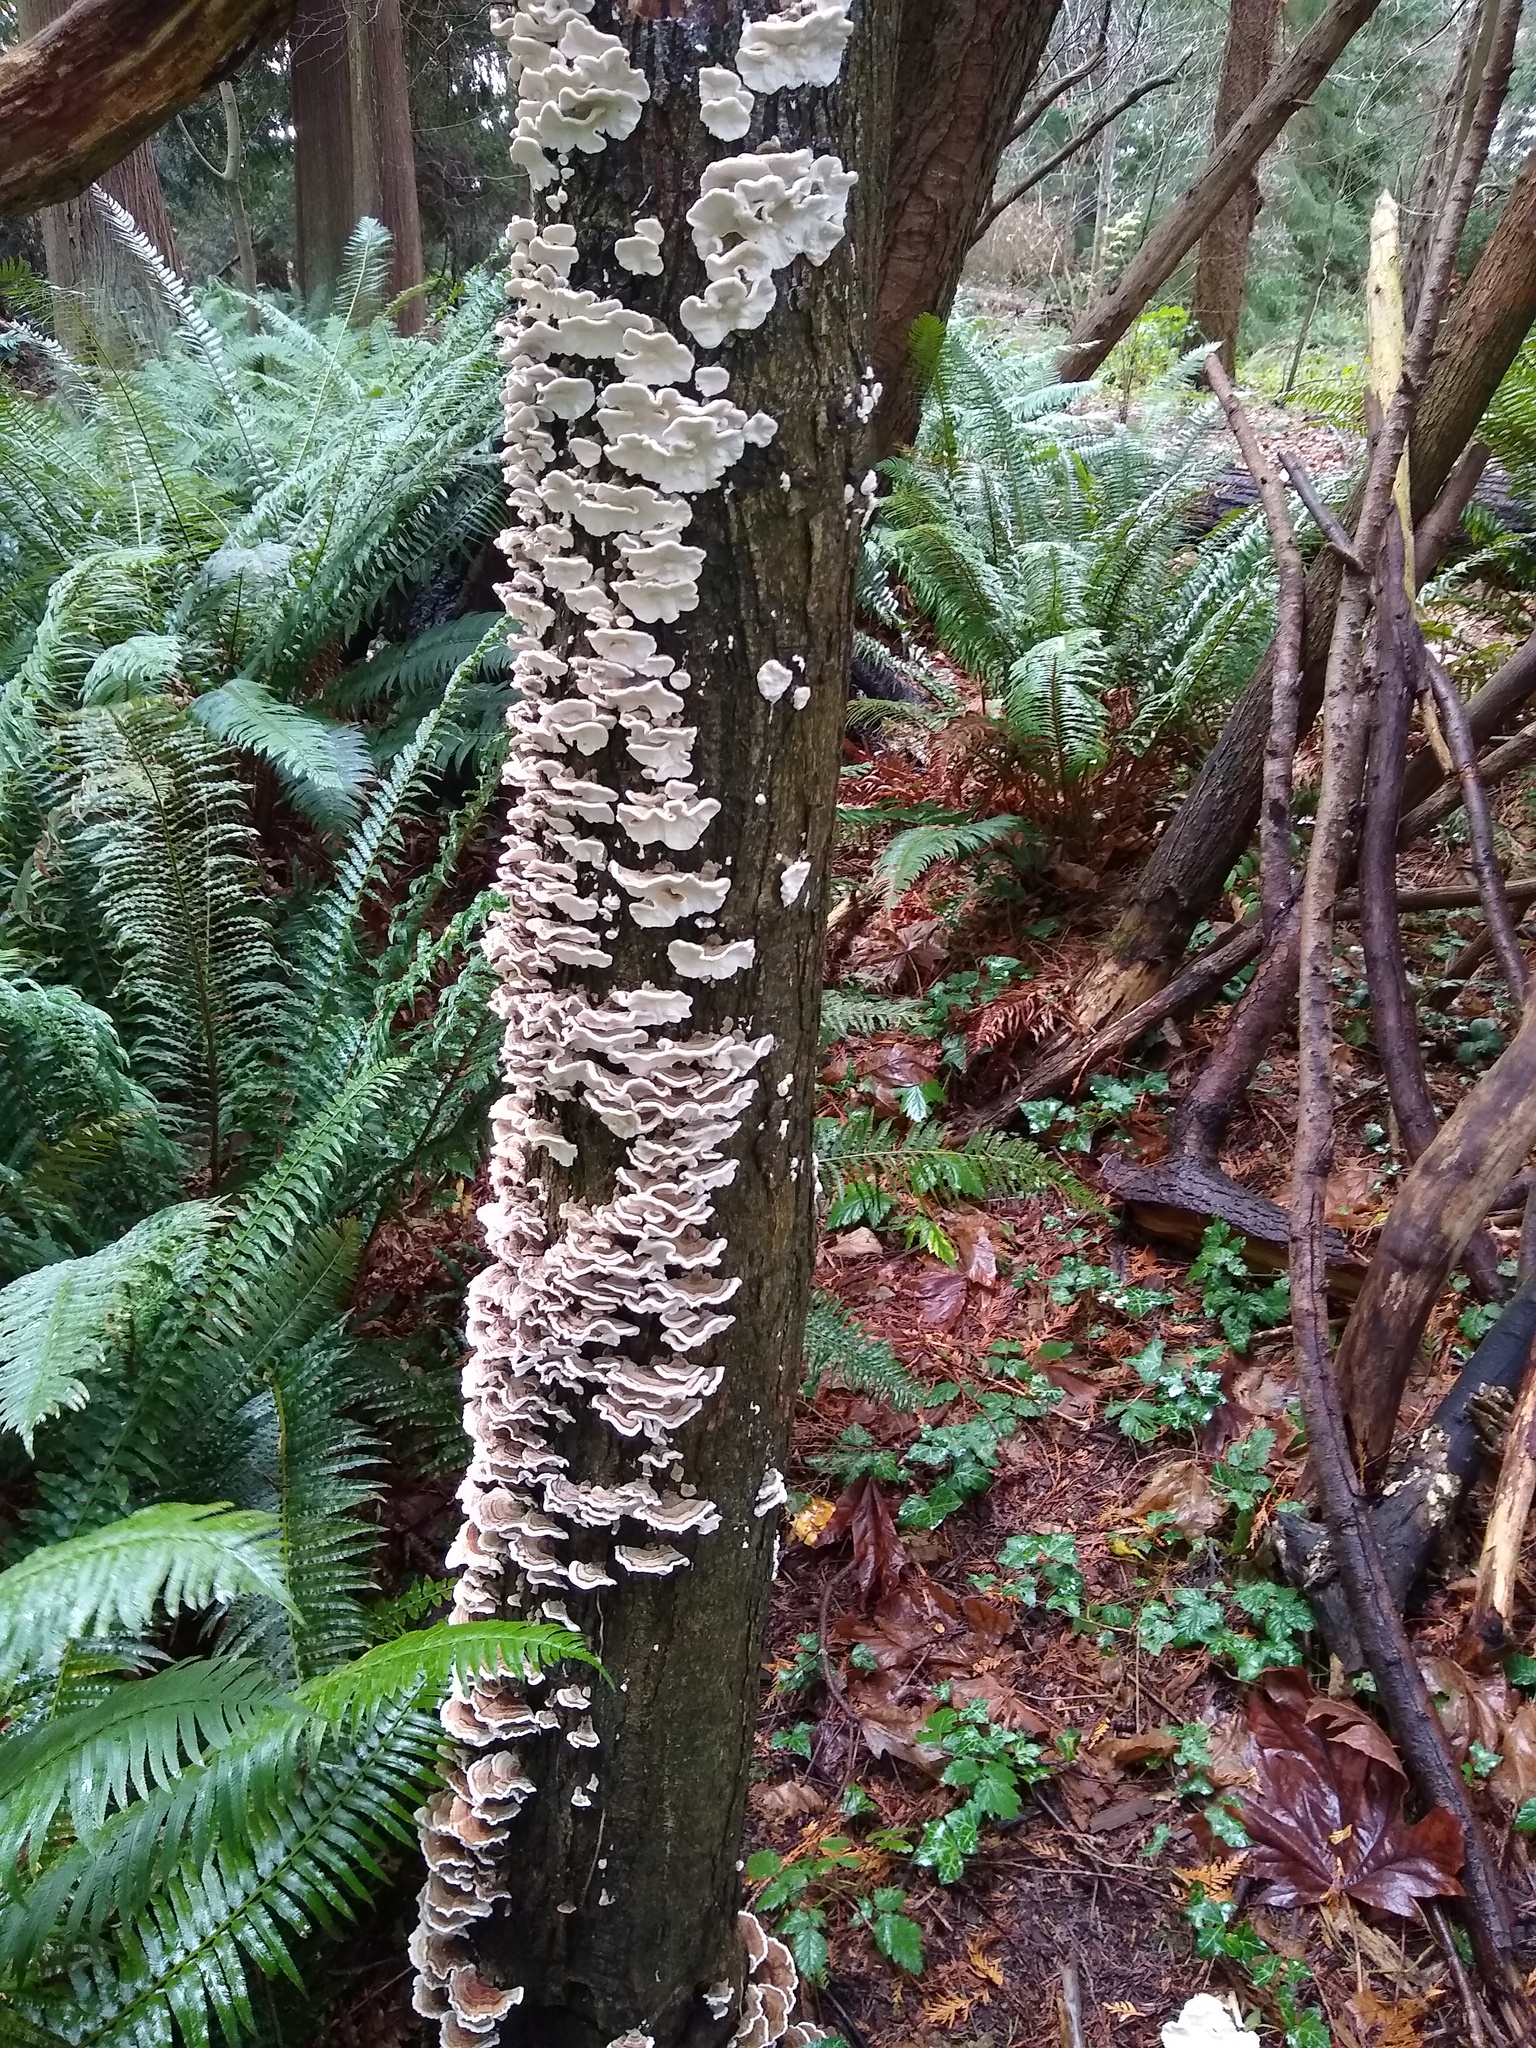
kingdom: Fungi
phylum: Basidiomycota
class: Agaricomycetes
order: Polyporales
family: Polyporaceae
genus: Trametes
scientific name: Trametes versicolor
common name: Turkeytail
